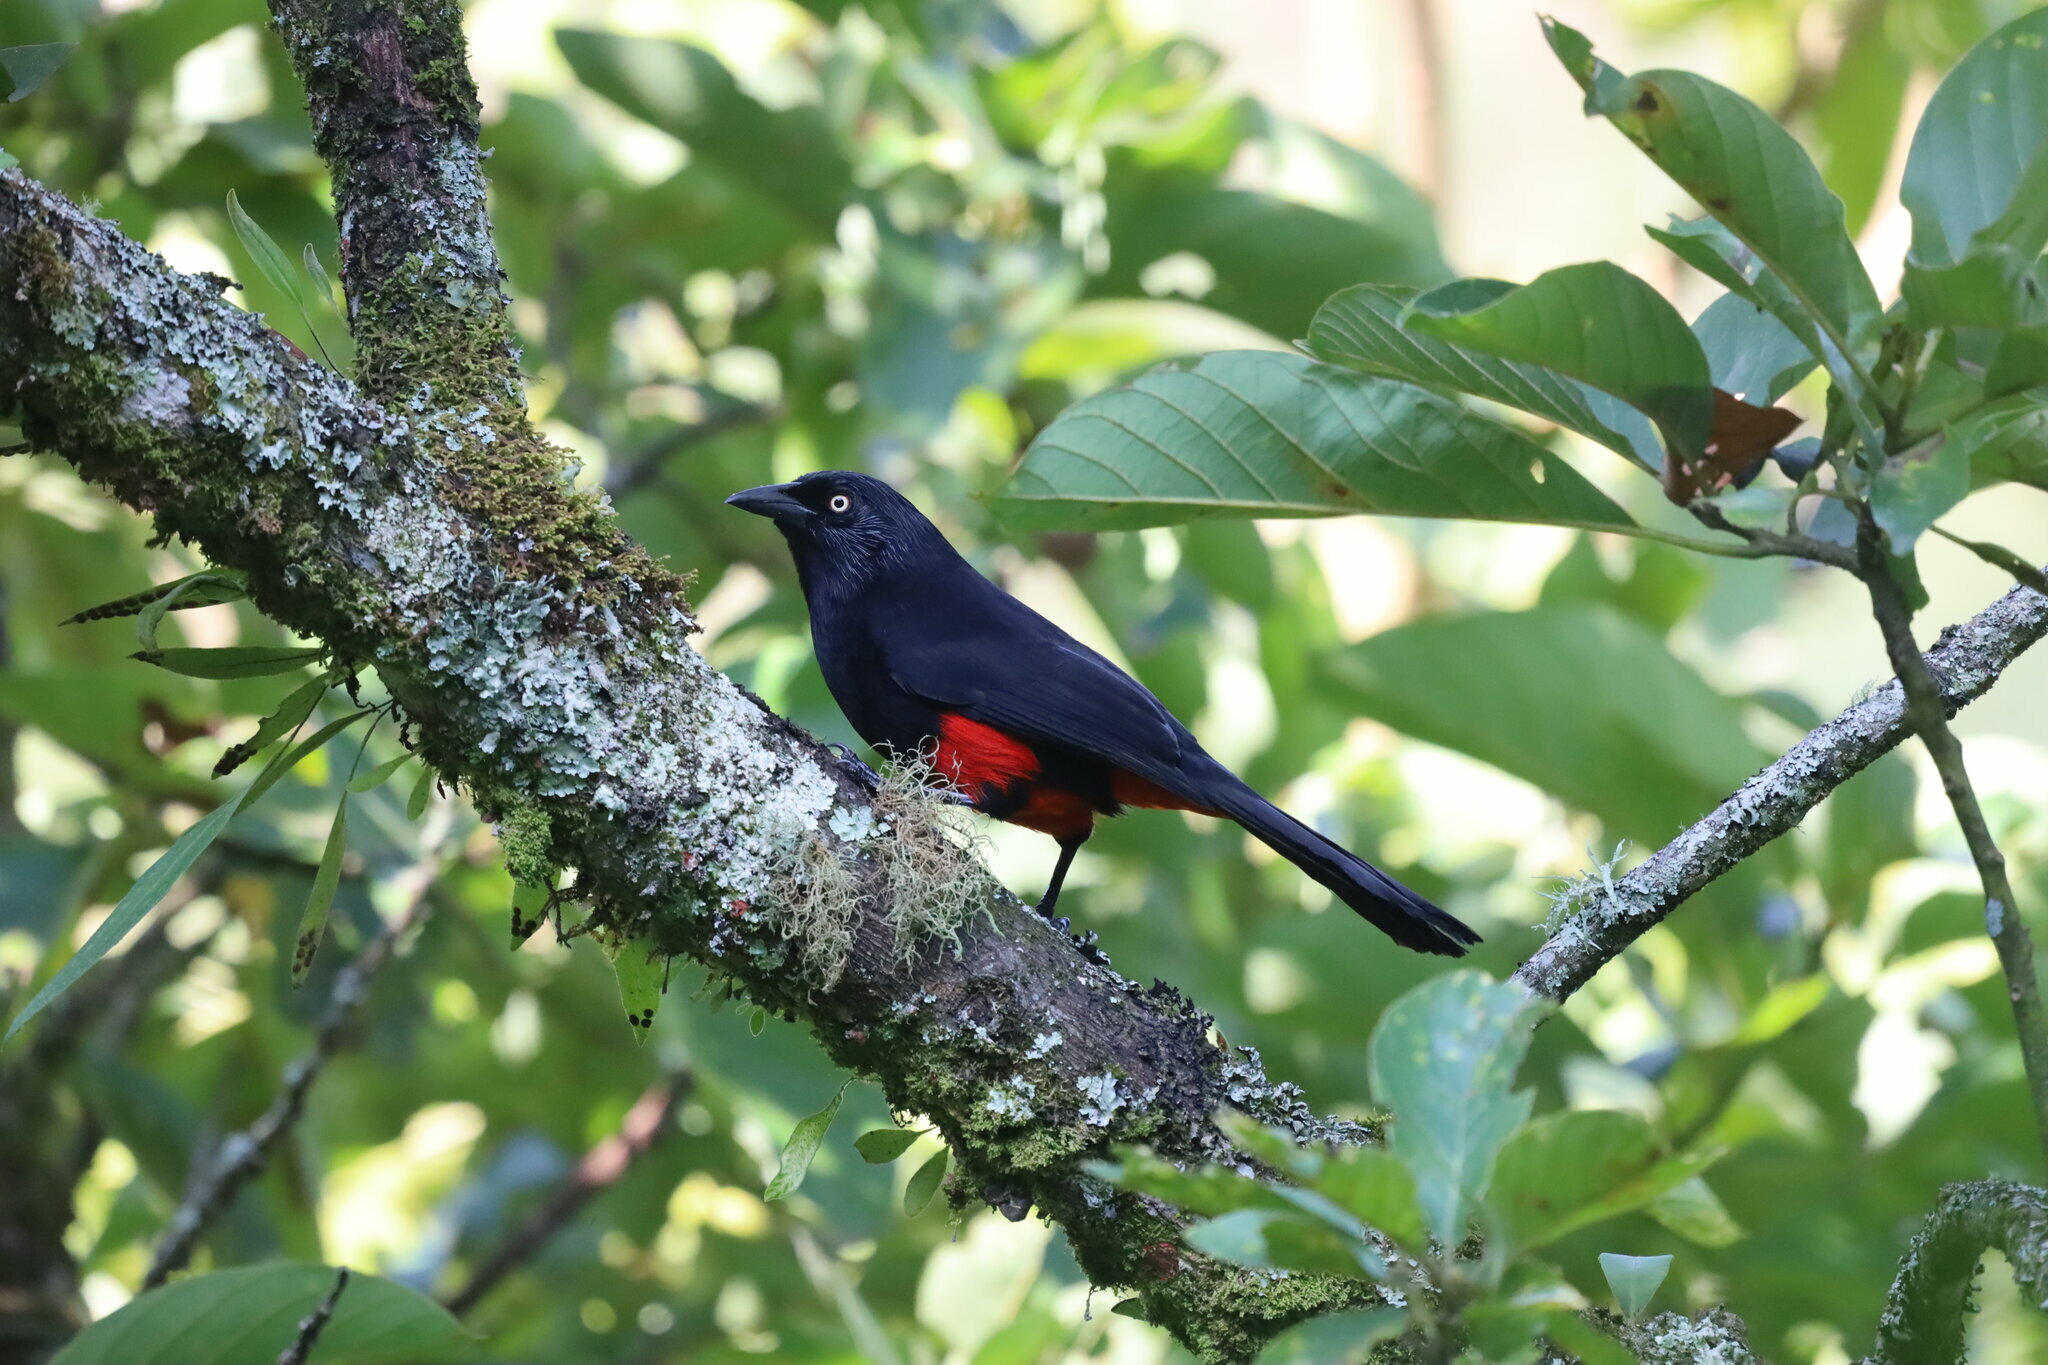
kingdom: Animalia
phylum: Chordata
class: Aves
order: Passeriformes
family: Icteridae
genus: Hypopyrrhus
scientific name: Hypopyrrhus pyrohypogaster
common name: Red-bellied grackle
